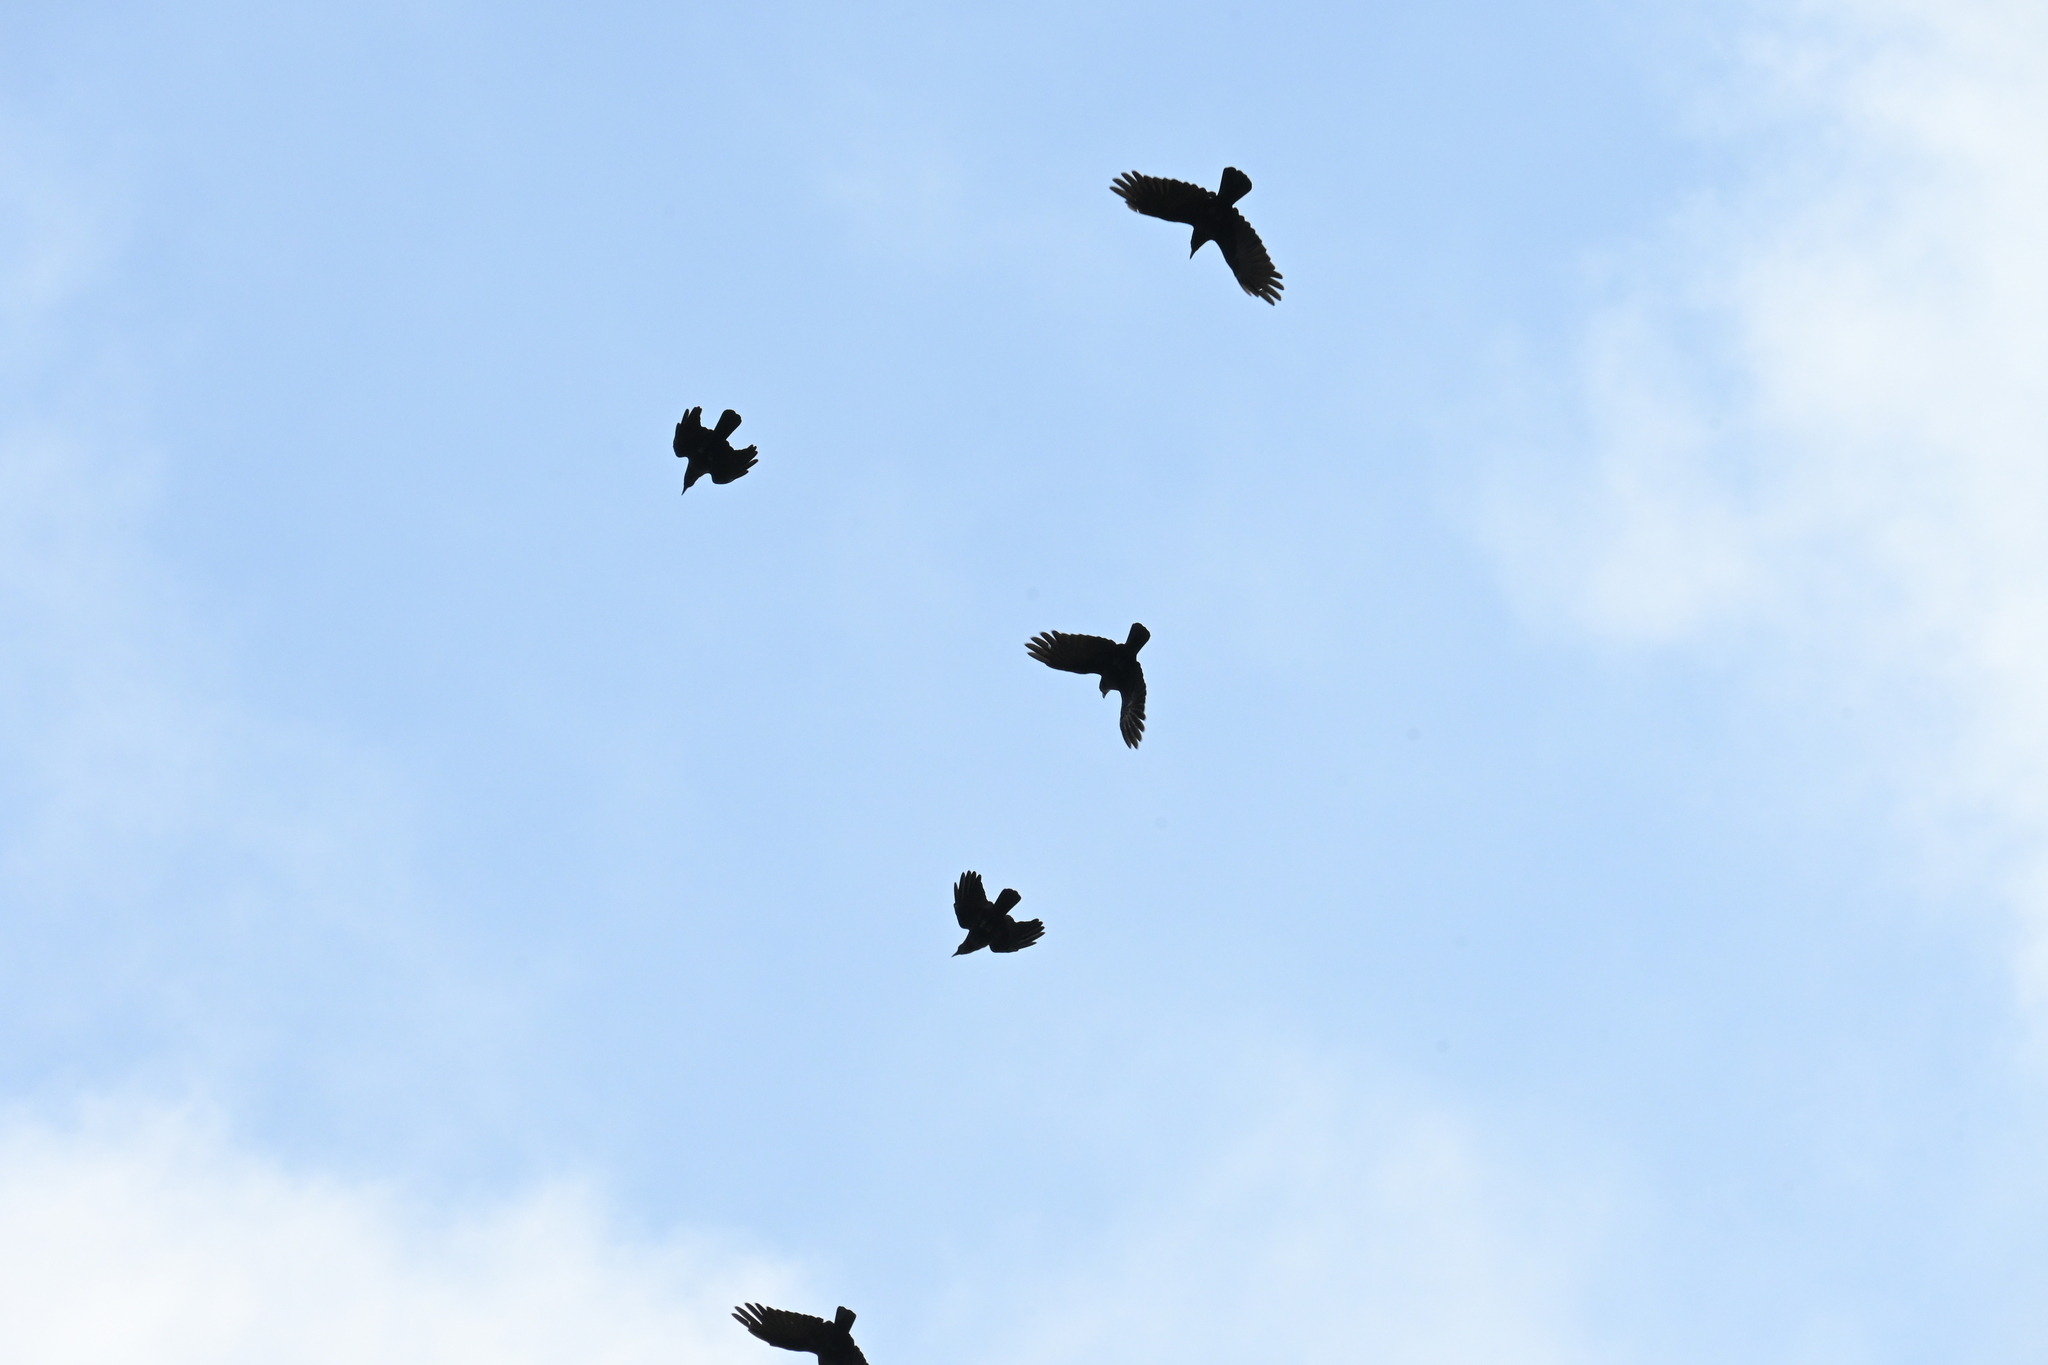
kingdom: Animalia
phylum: Chordata
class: Aves
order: Passeriformes
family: Corvidae
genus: Corvus
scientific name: Corvus corone
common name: Carrion crow
